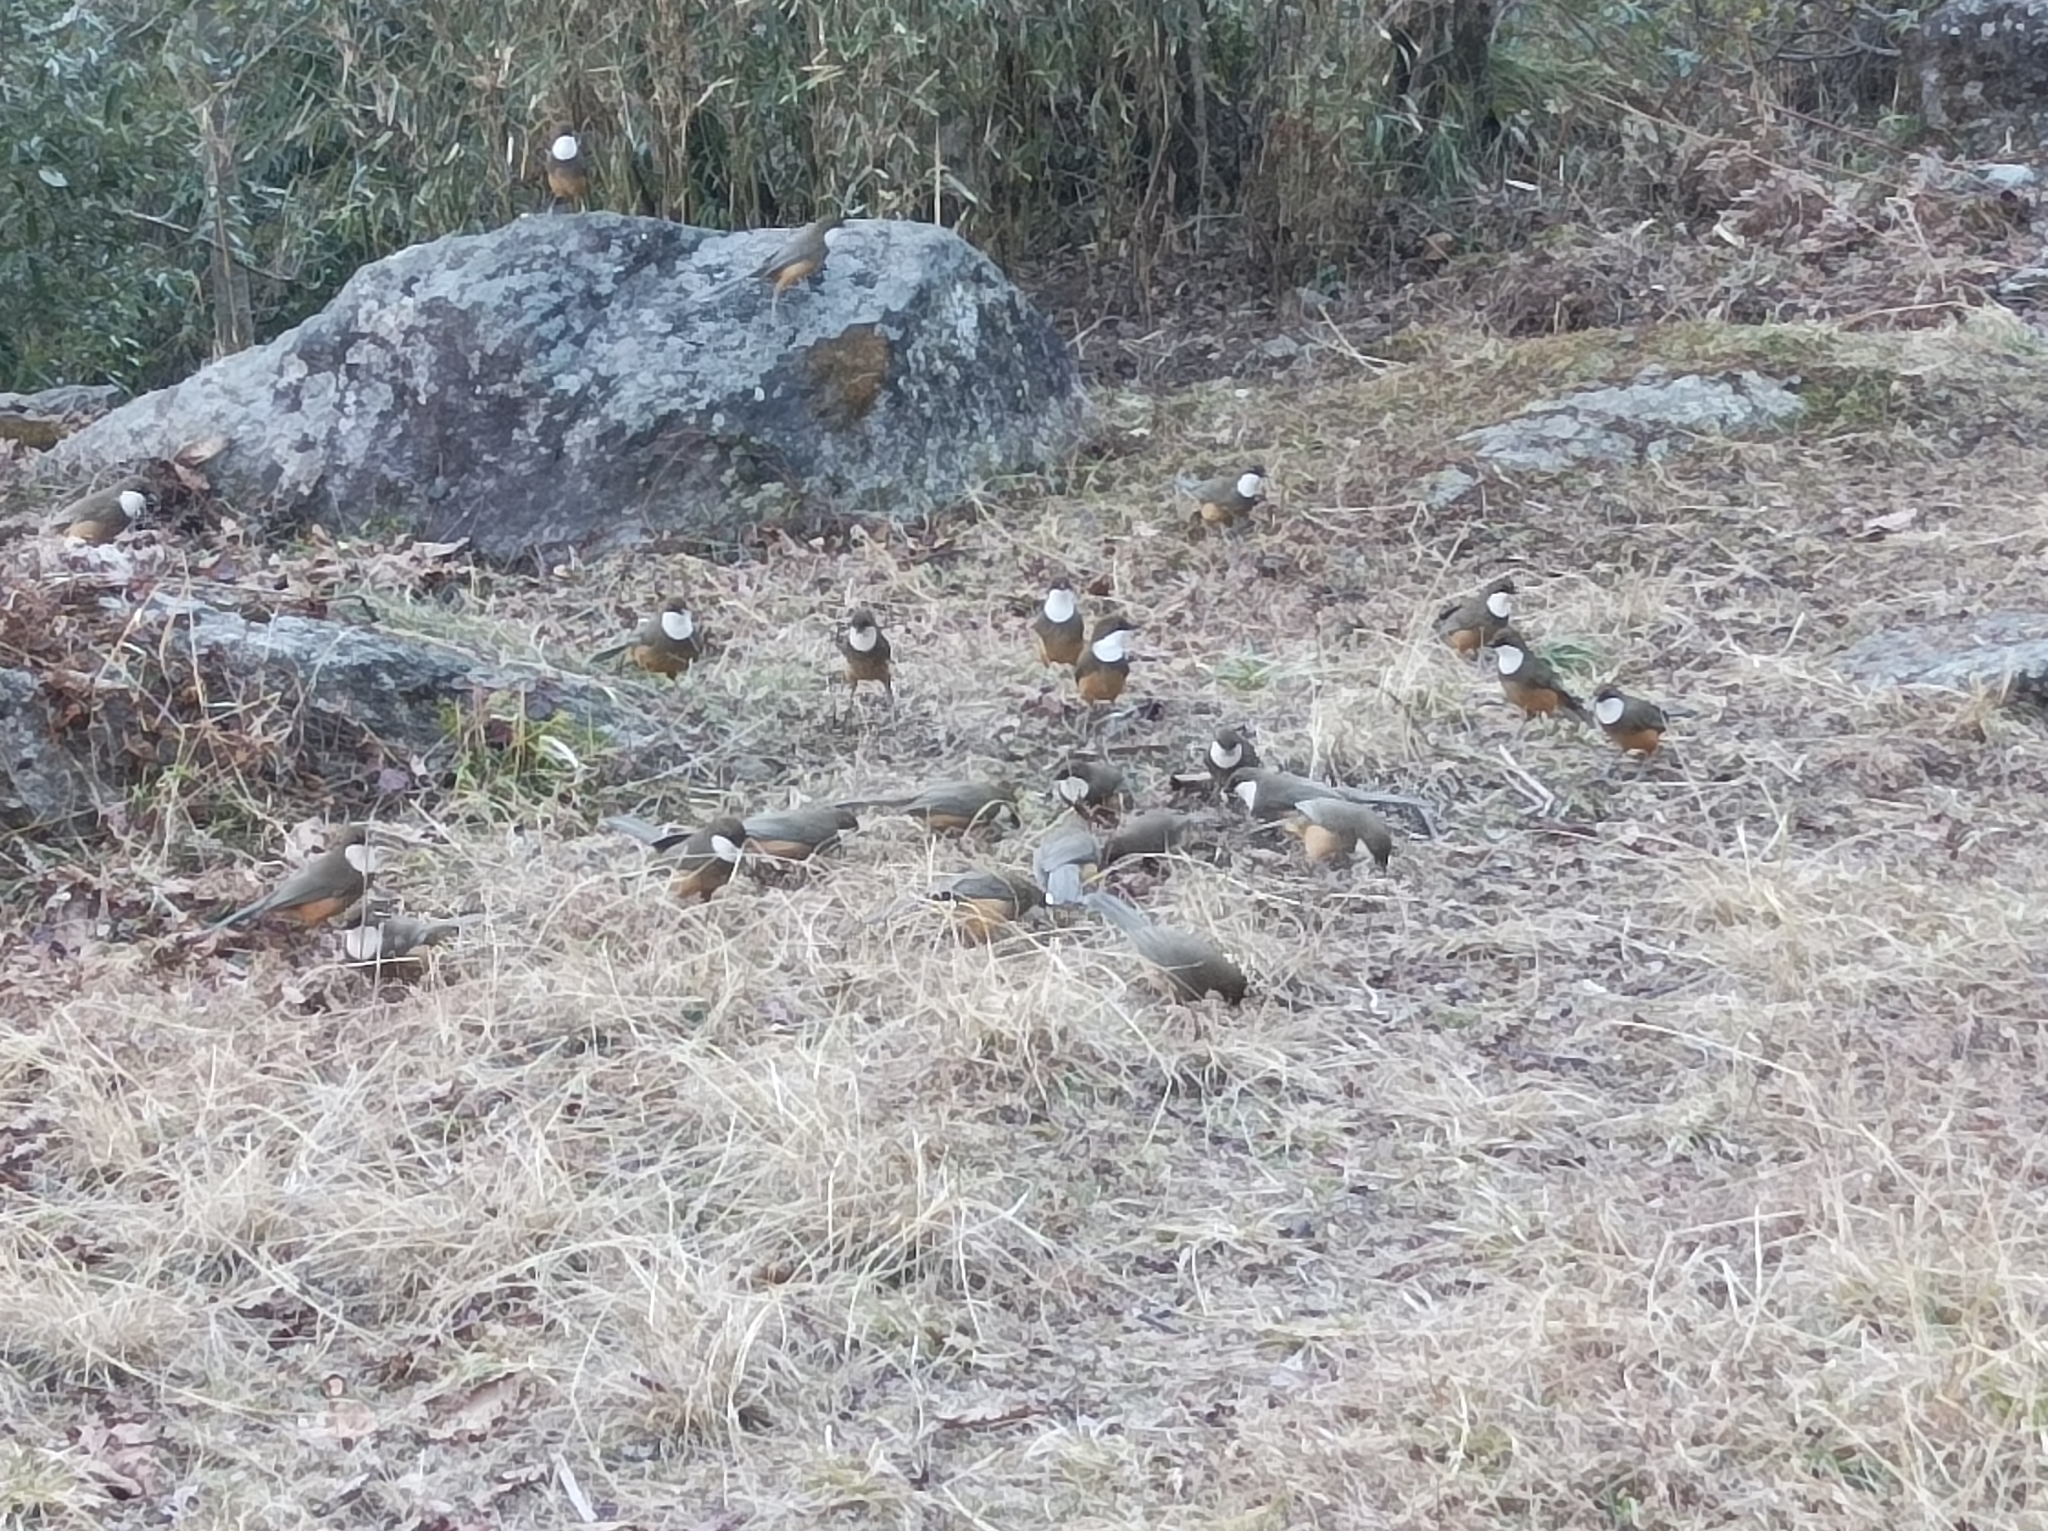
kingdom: Animalia
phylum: Chordata
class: Aves
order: Passeriformes
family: Leiothrichidae
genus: Garrulax
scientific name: Garrulax albogularis
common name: White-throated laughingthrush
